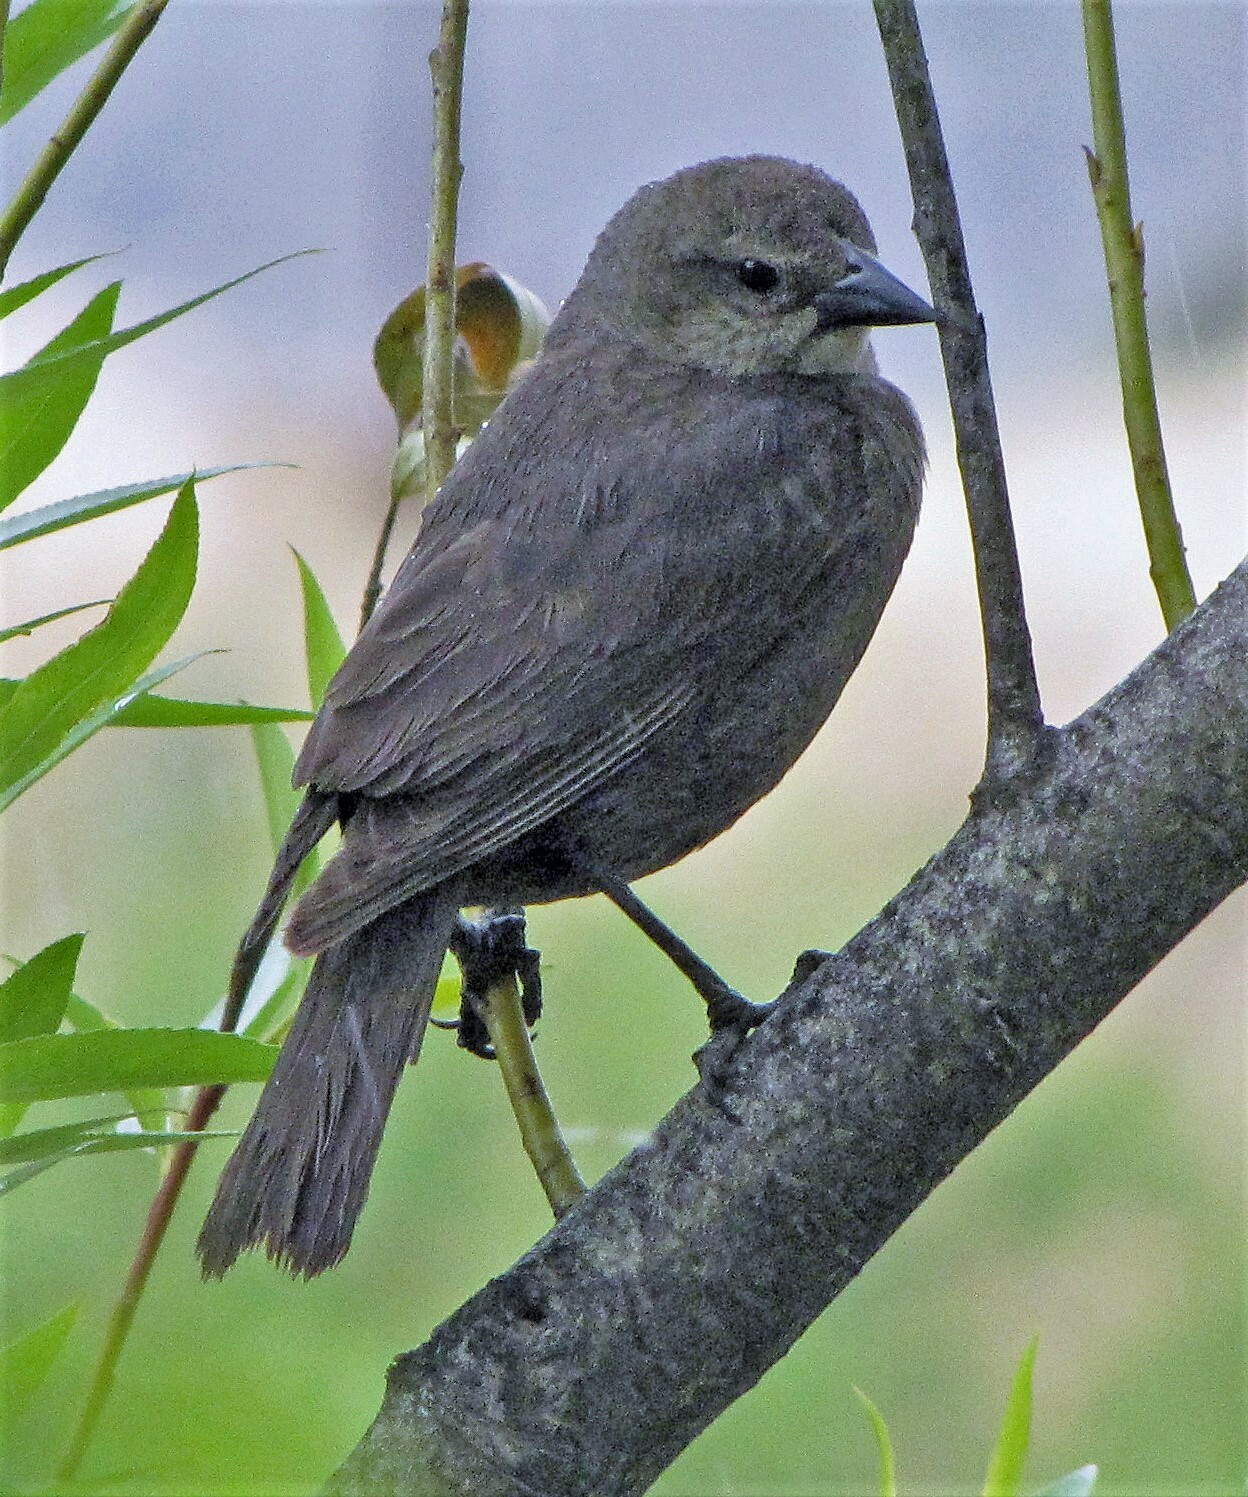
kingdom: Animalia
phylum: Chordata
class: Aves
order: Passeriformes
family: Icteridae
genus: Molothrus
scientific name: Molothrus bonariensis
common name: Shiny cowbird
